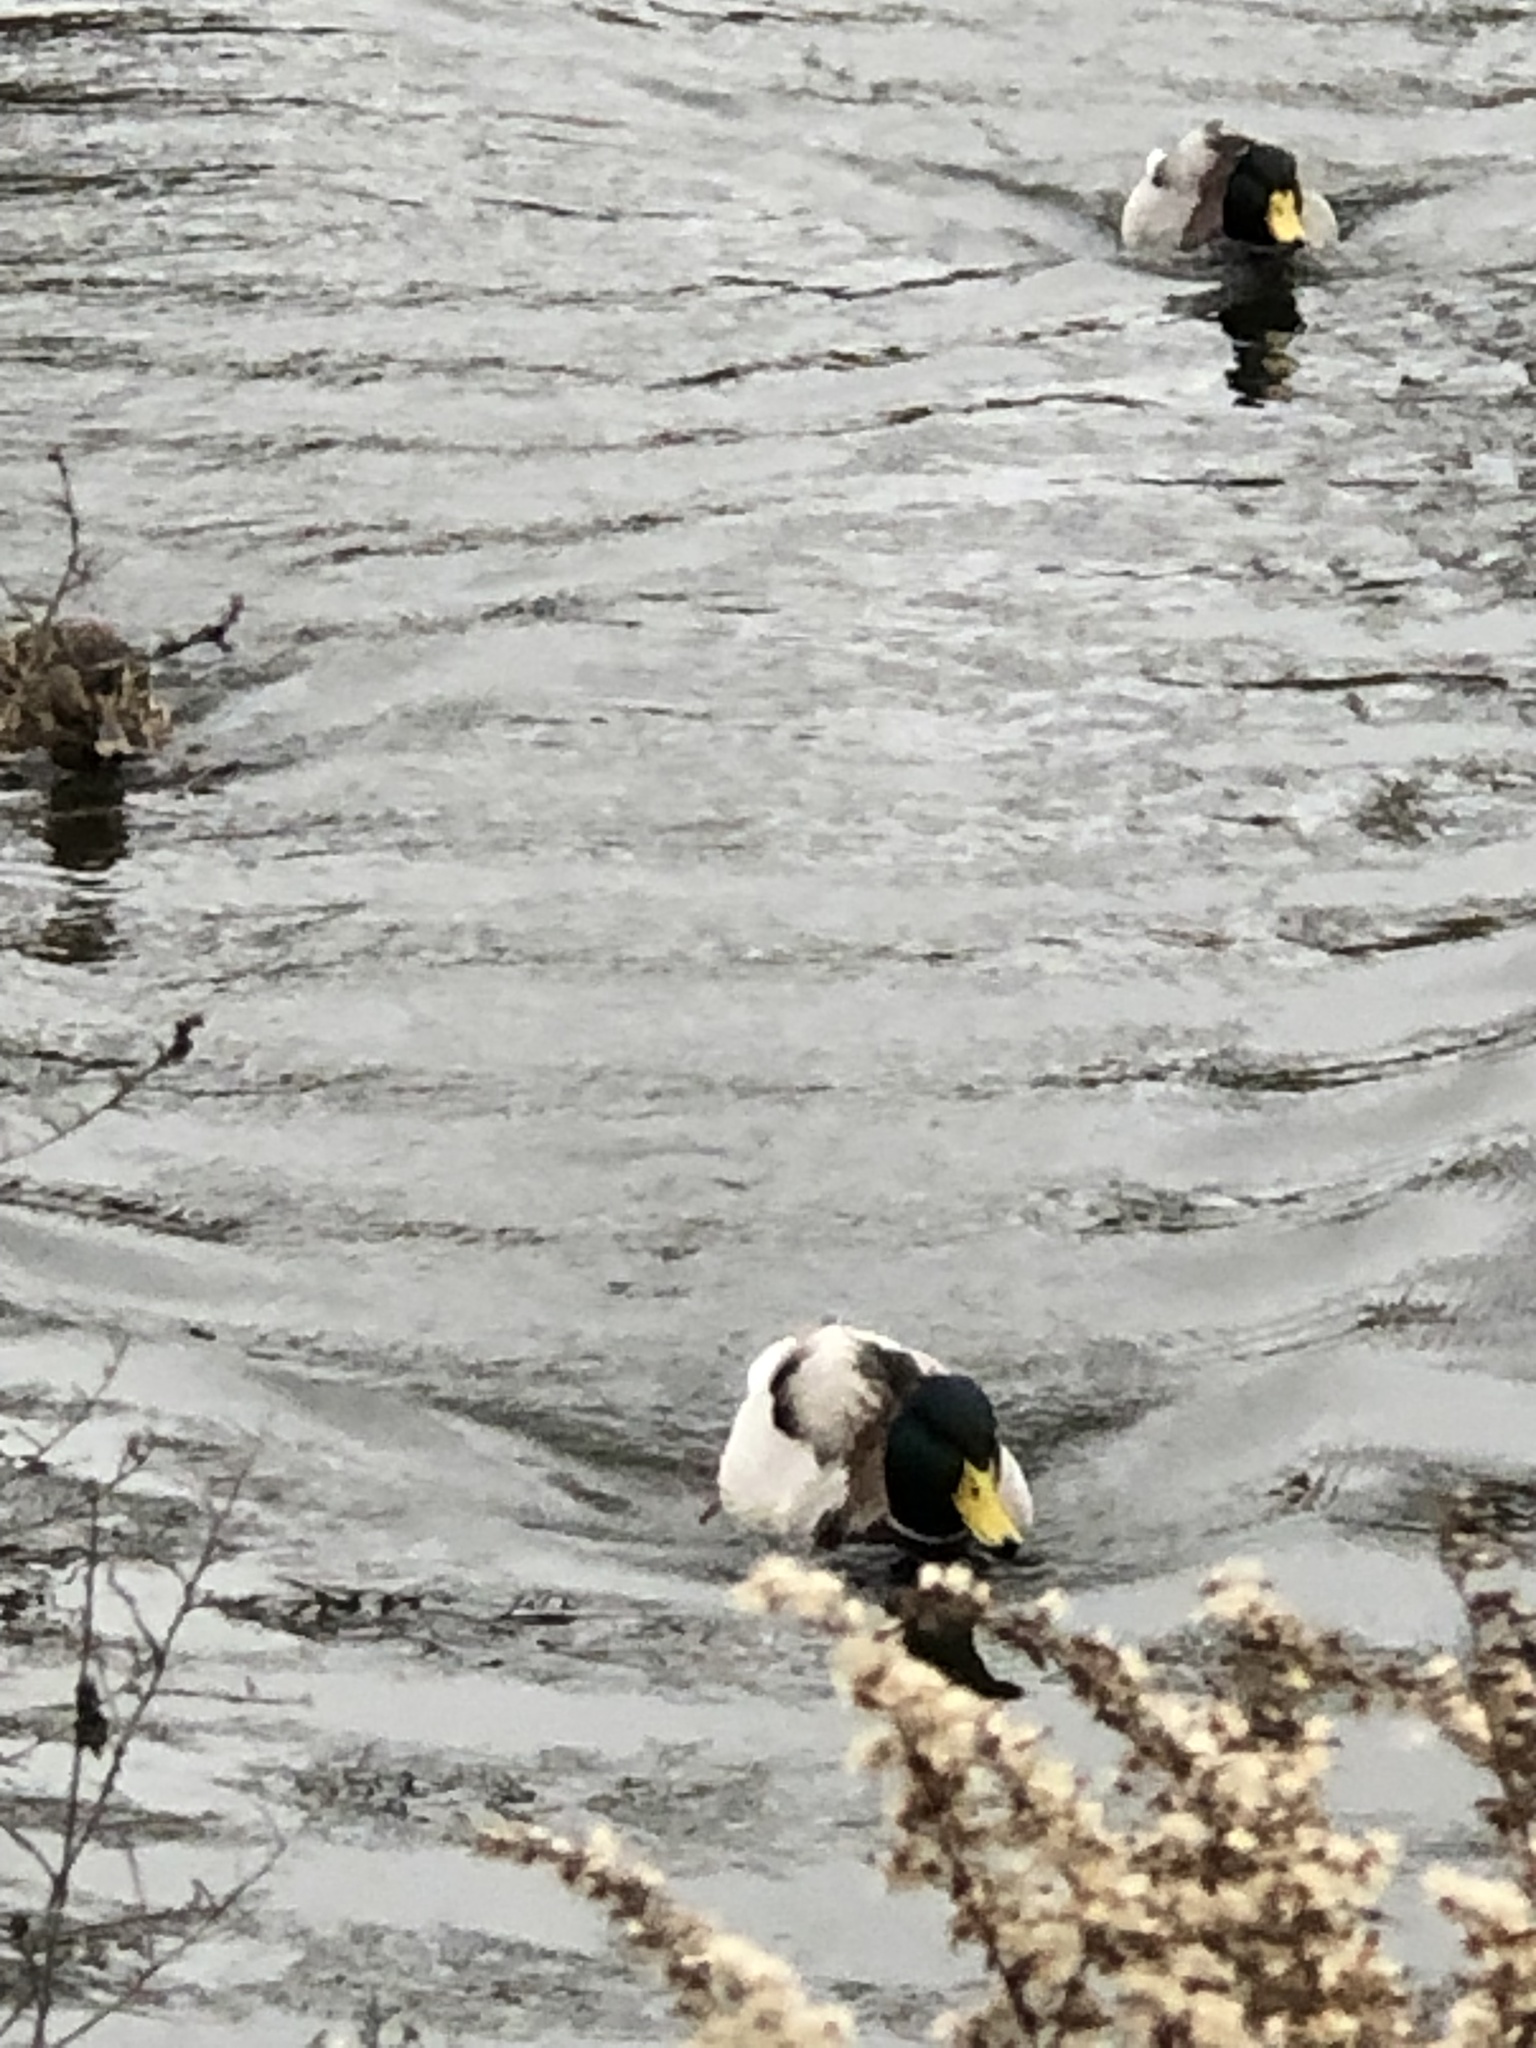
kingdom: Animalia
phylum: Chordata
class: Aves
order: Anseriformes
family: Anatidae
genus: Anas
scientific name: Anas platyrhynchos
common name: Mallard
